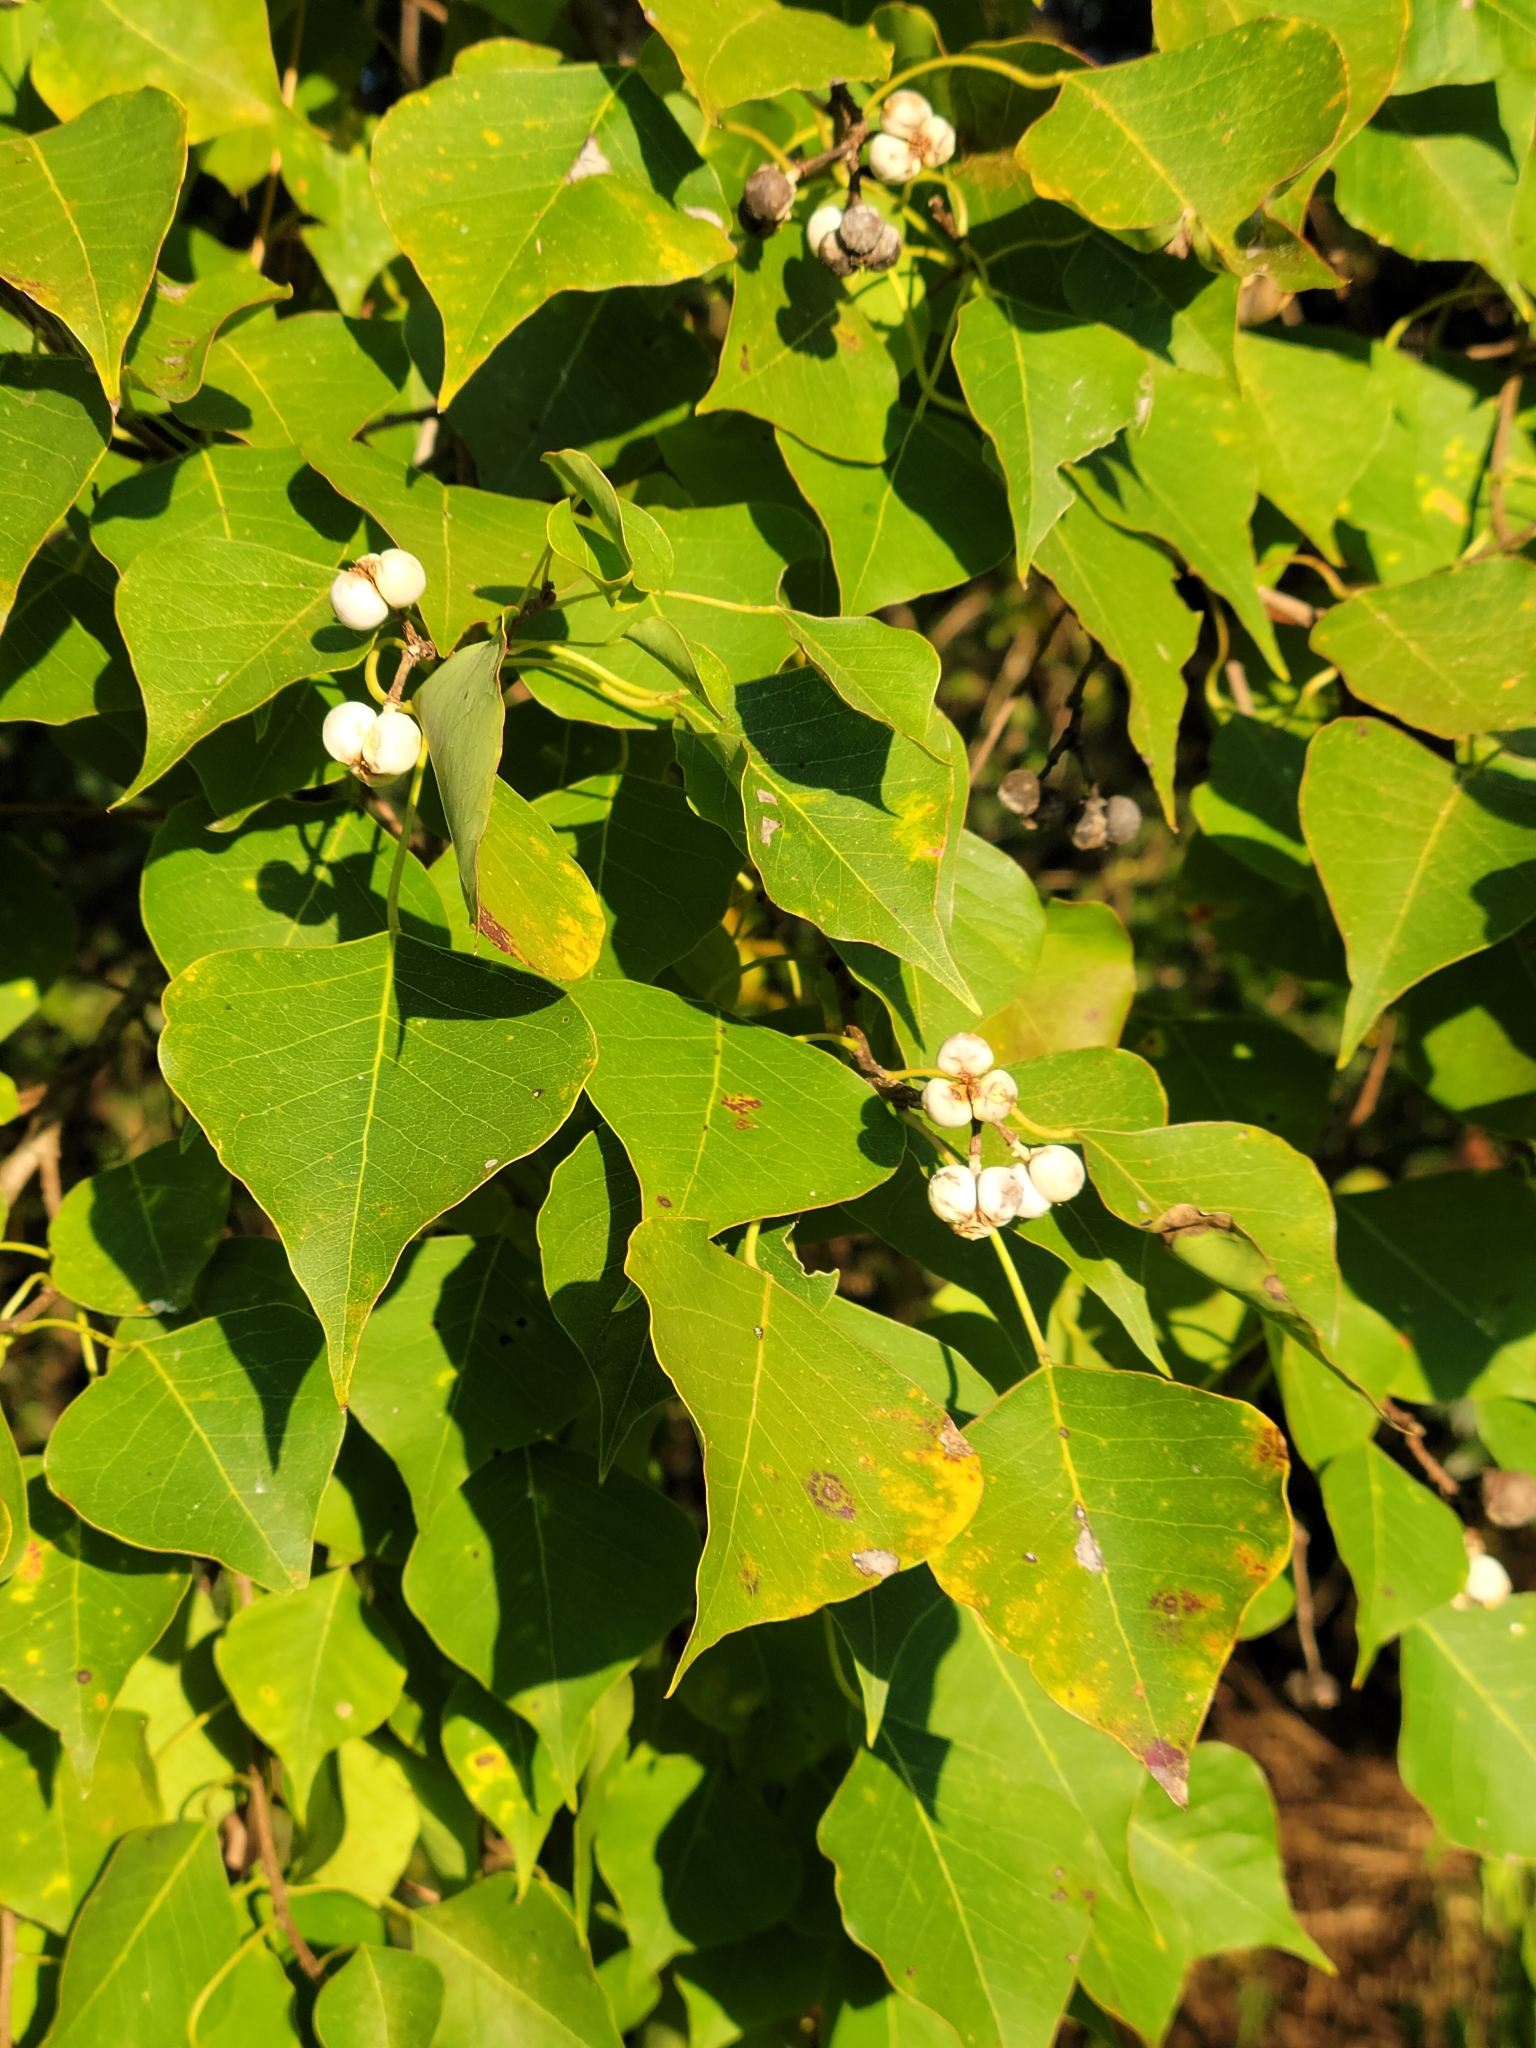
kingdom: Plantae
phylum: Tracheophyta
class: Magnoliopsida
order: Malpighiales
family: Euphorbiaceae
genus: Triadica
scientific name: Triadica sebifera
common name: Chinese tallow
